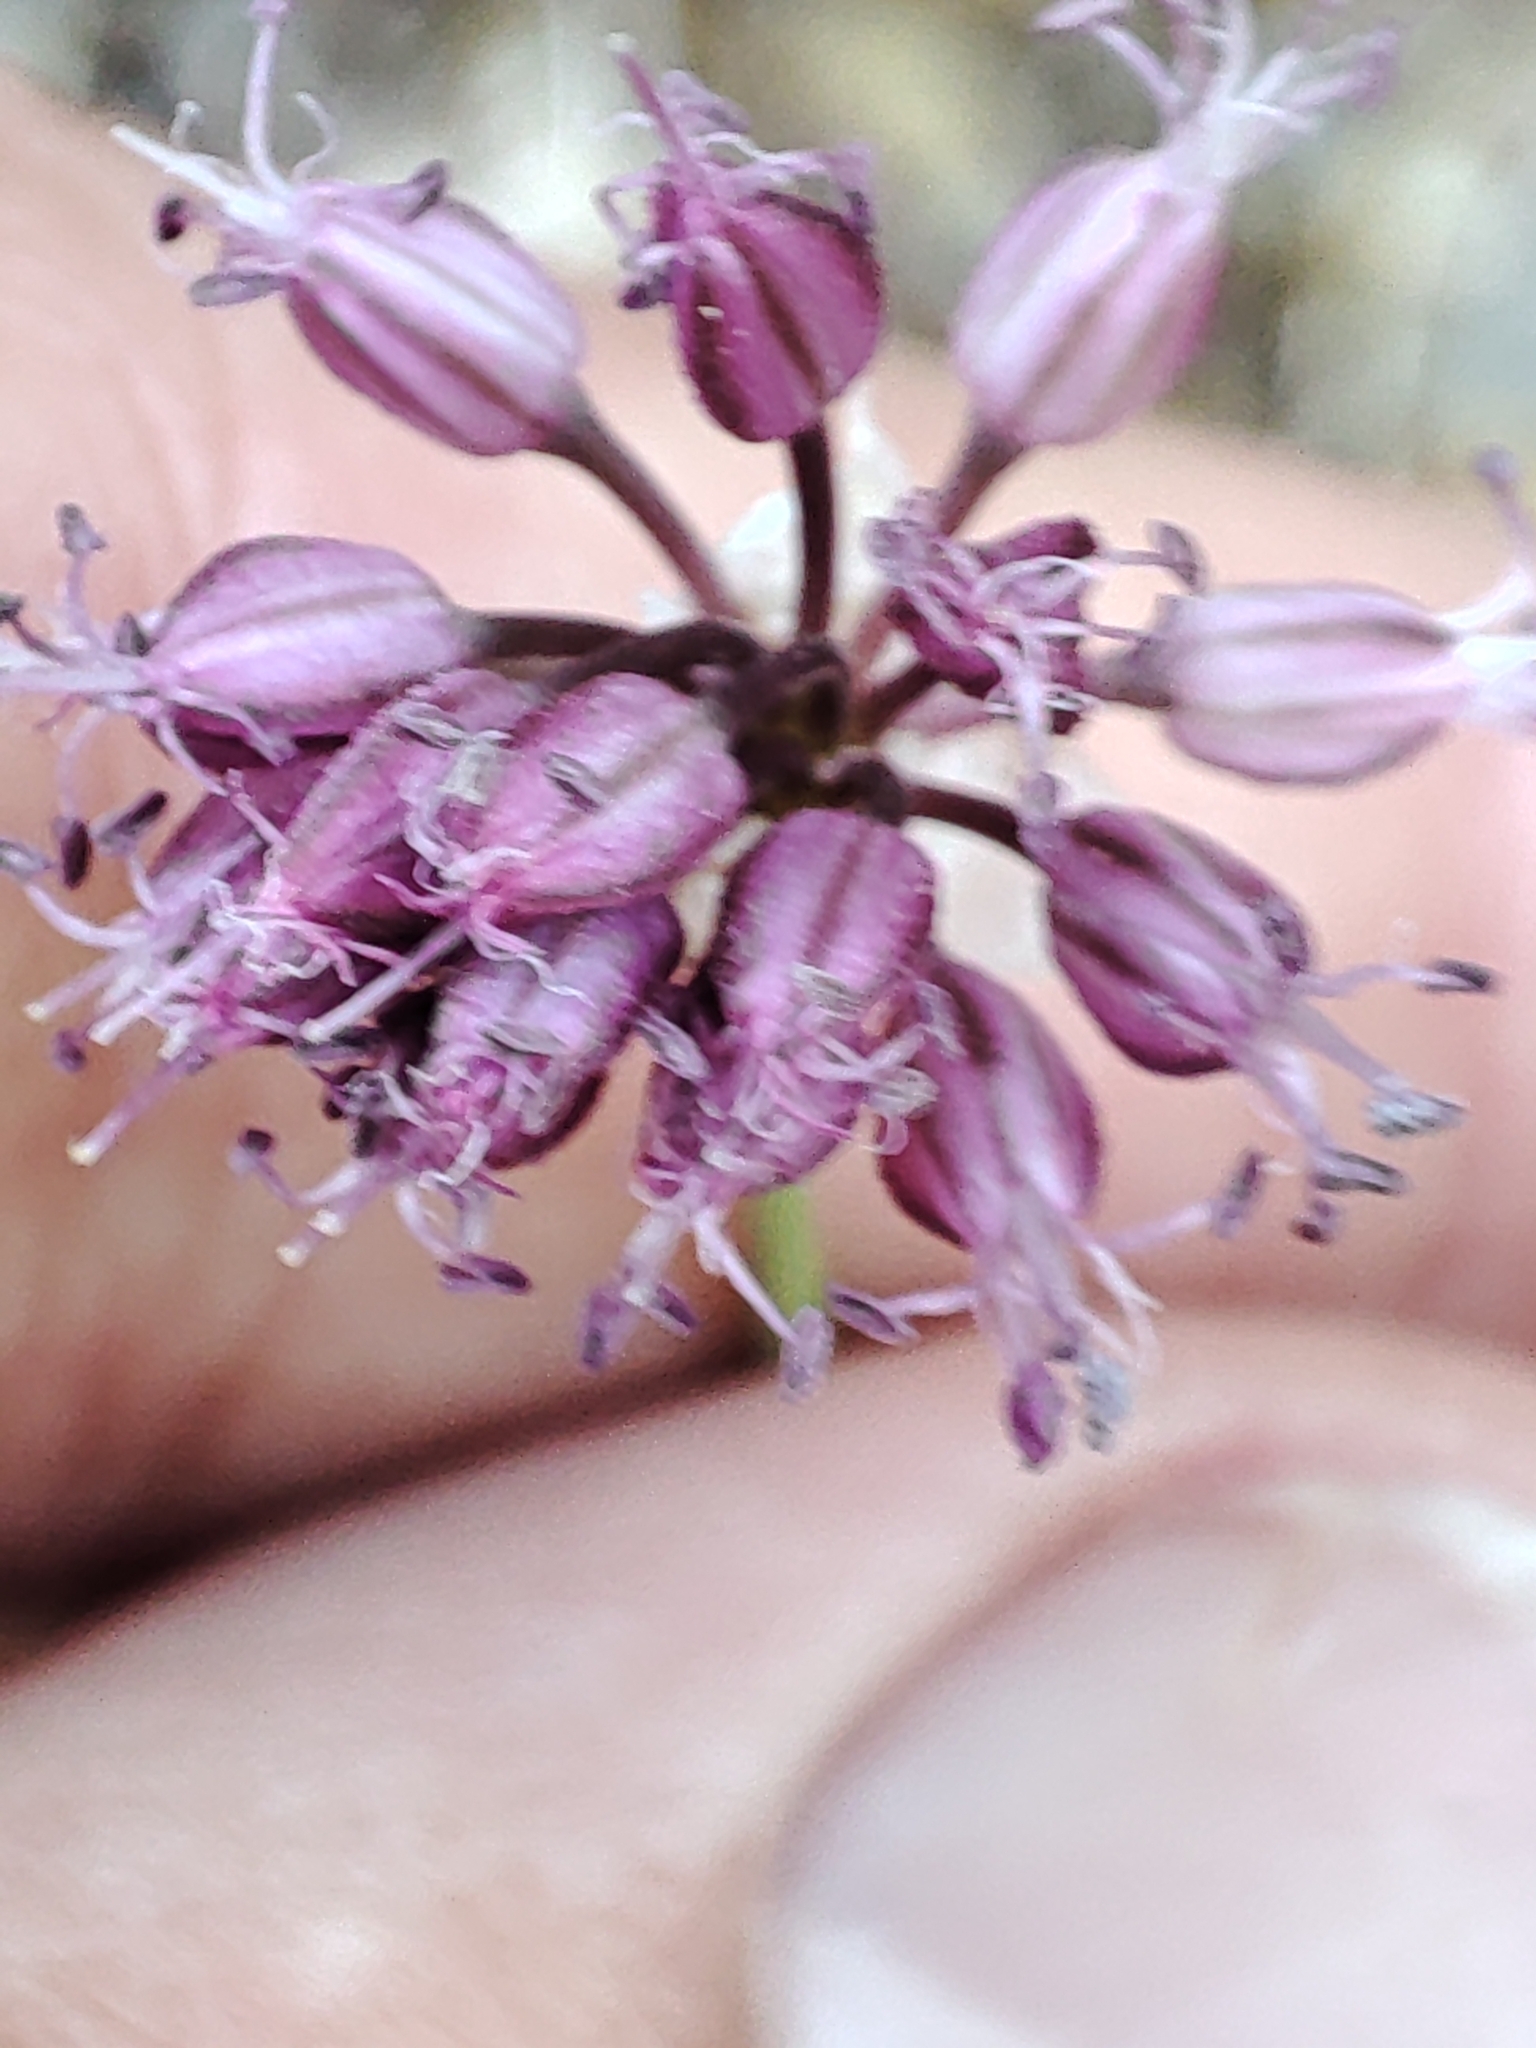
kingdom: Plantae
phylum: Tracheophyta
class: Liliopsida
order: Asparagales
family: Amaryllidaceae
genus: Allium
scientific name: Allium sphaerocephalon
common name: Round-headed leek
